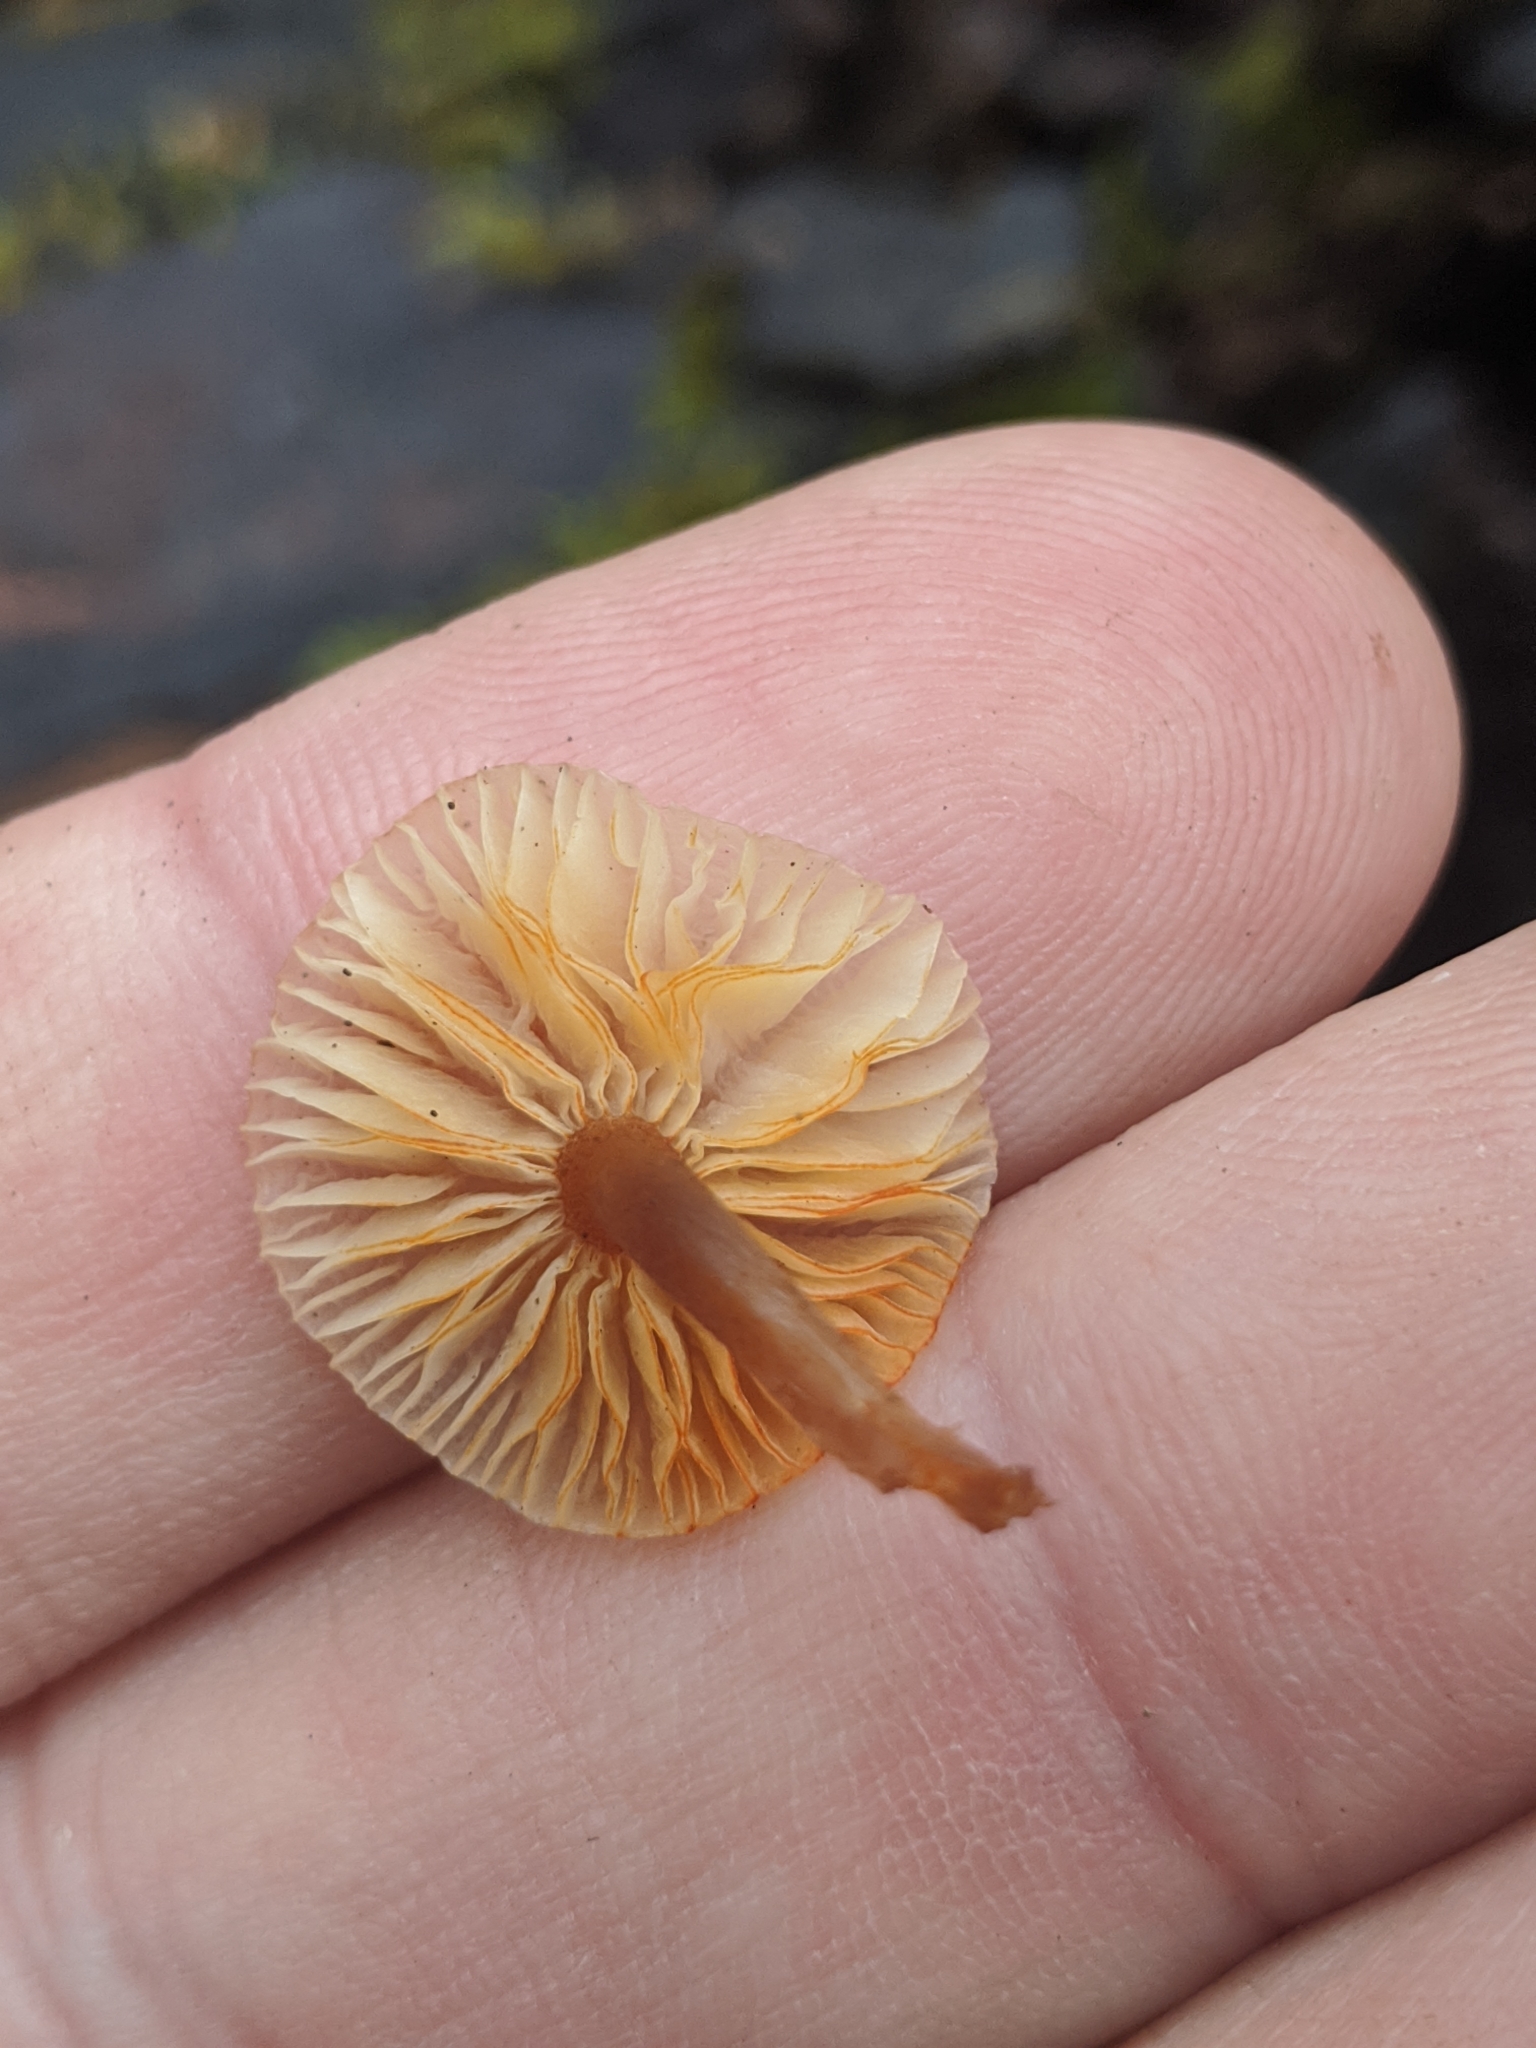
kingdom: Fungi
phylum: Basidiomycota
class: Agaricomycetes
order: Agaricales
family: Mycenaceae
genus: Mycena
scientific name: Mycena leaiana
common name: Orange mycena
